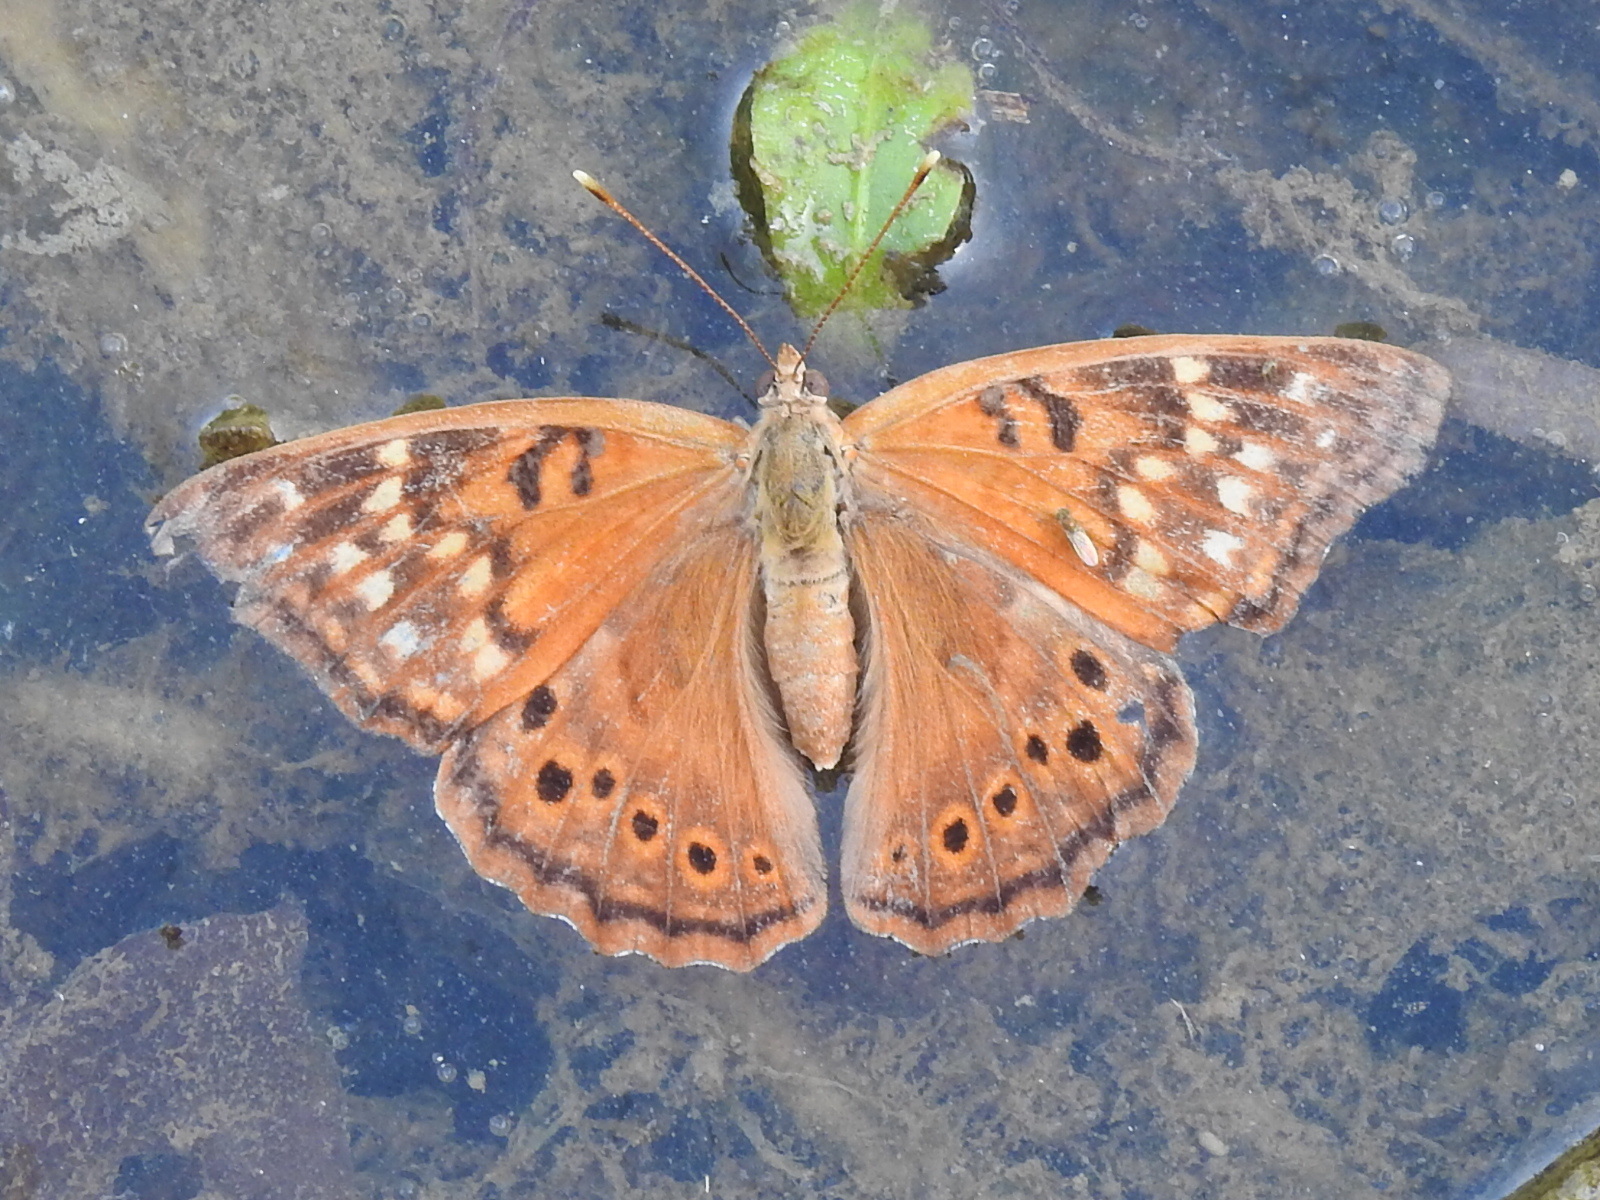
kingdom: Animalia
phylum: Arthropoda
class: Insecta
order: Lepidoptera
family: Nymphalidae
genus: Asterocampa
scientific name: Asterocampa clyton
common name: Tawny emperor
